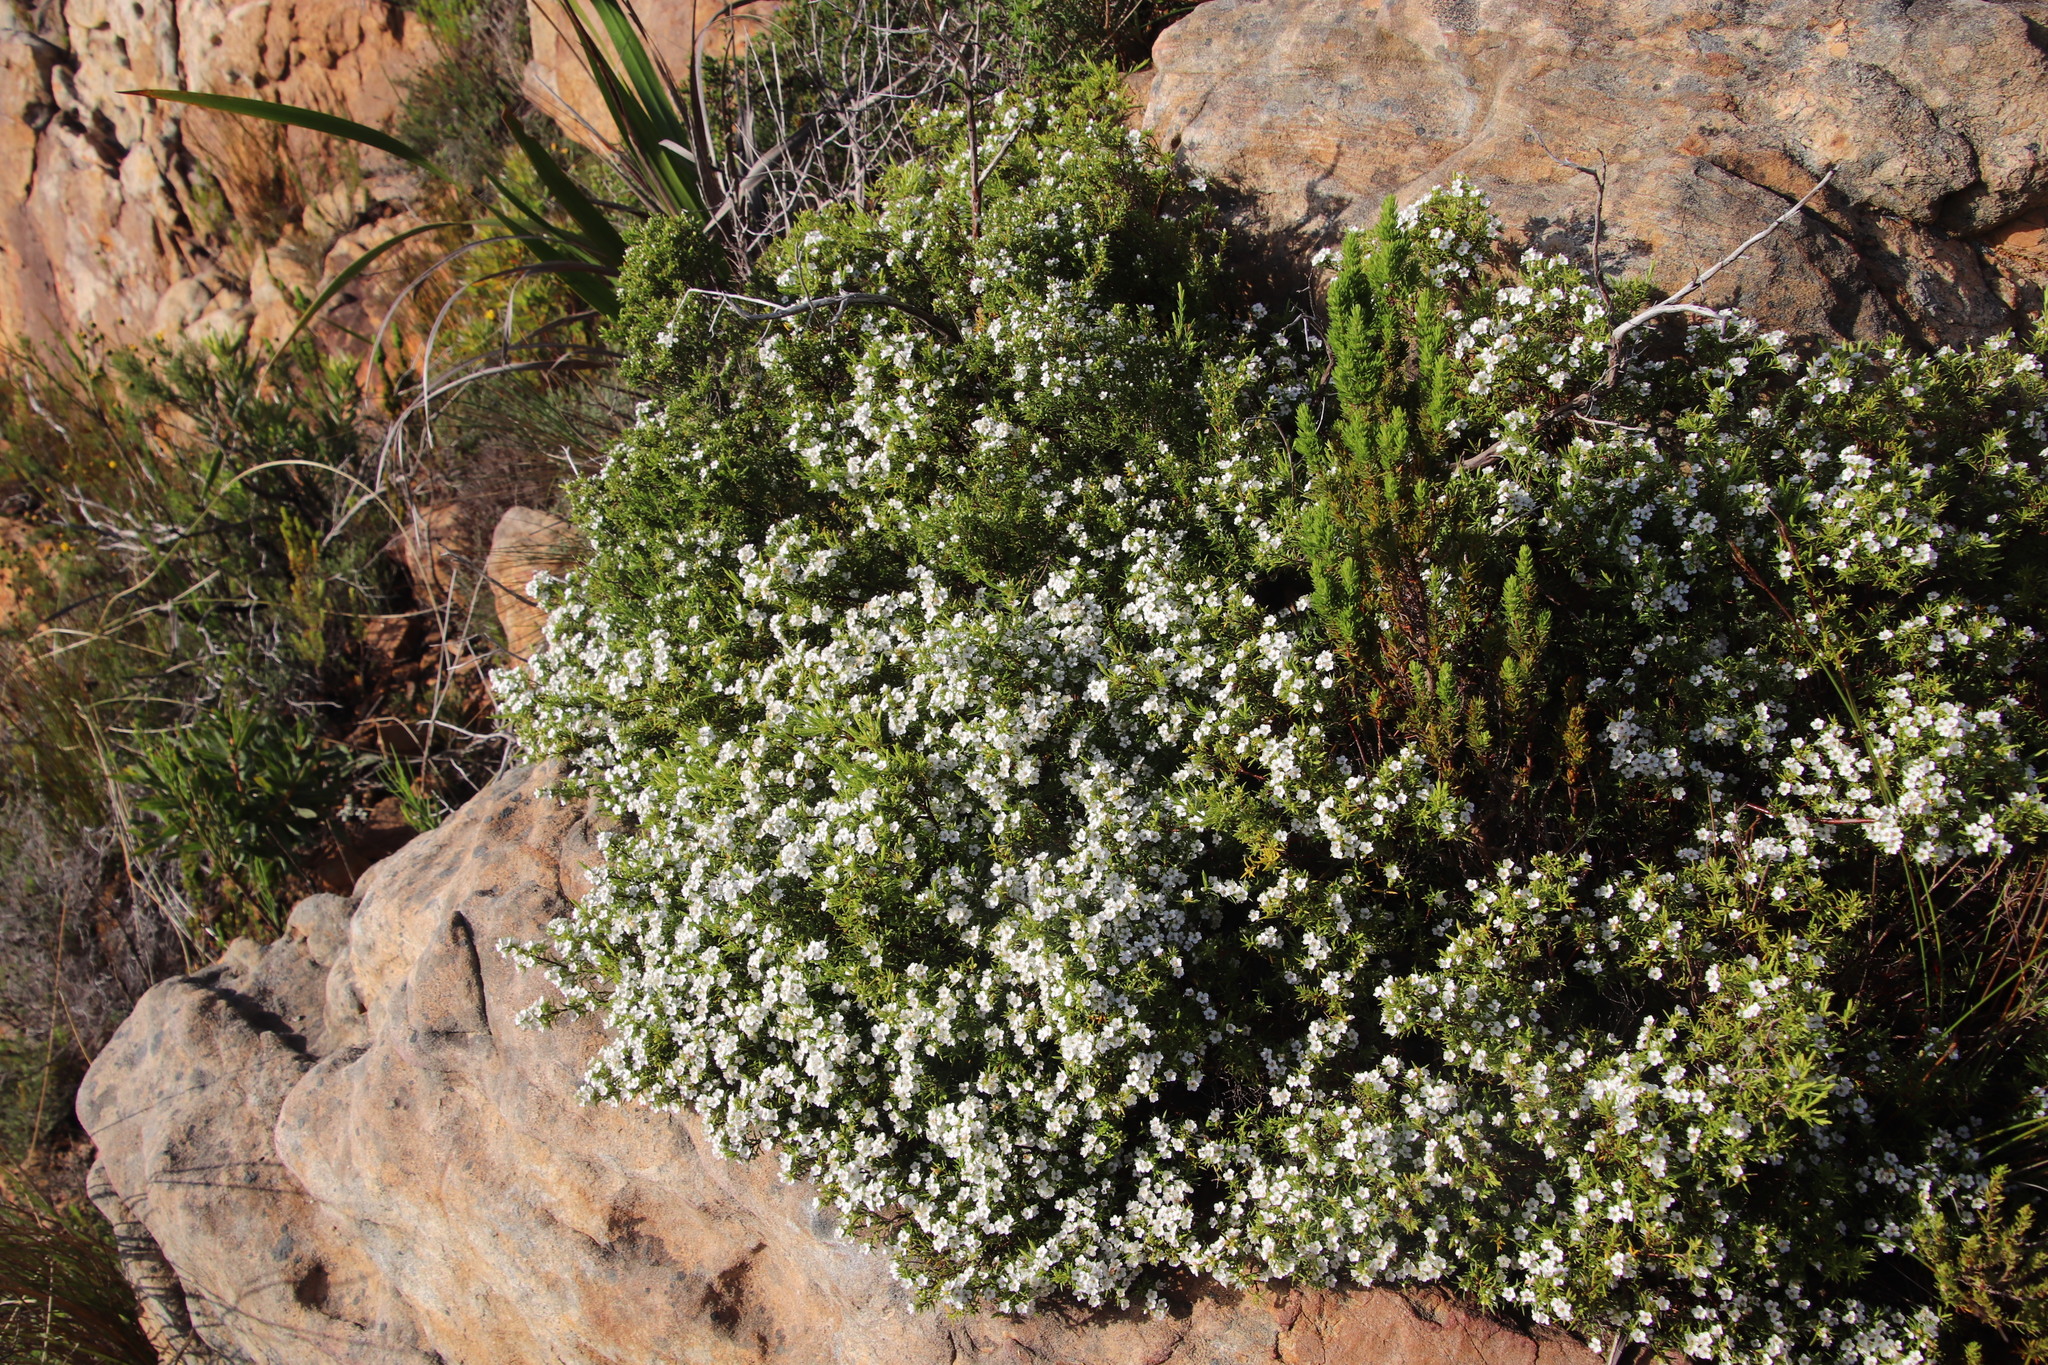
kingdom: Plantae
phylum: Tracheophyta
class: Magnoliopsida
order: Sapindales
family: Rutaceae
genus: Coleonema
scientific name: Coleonema album
